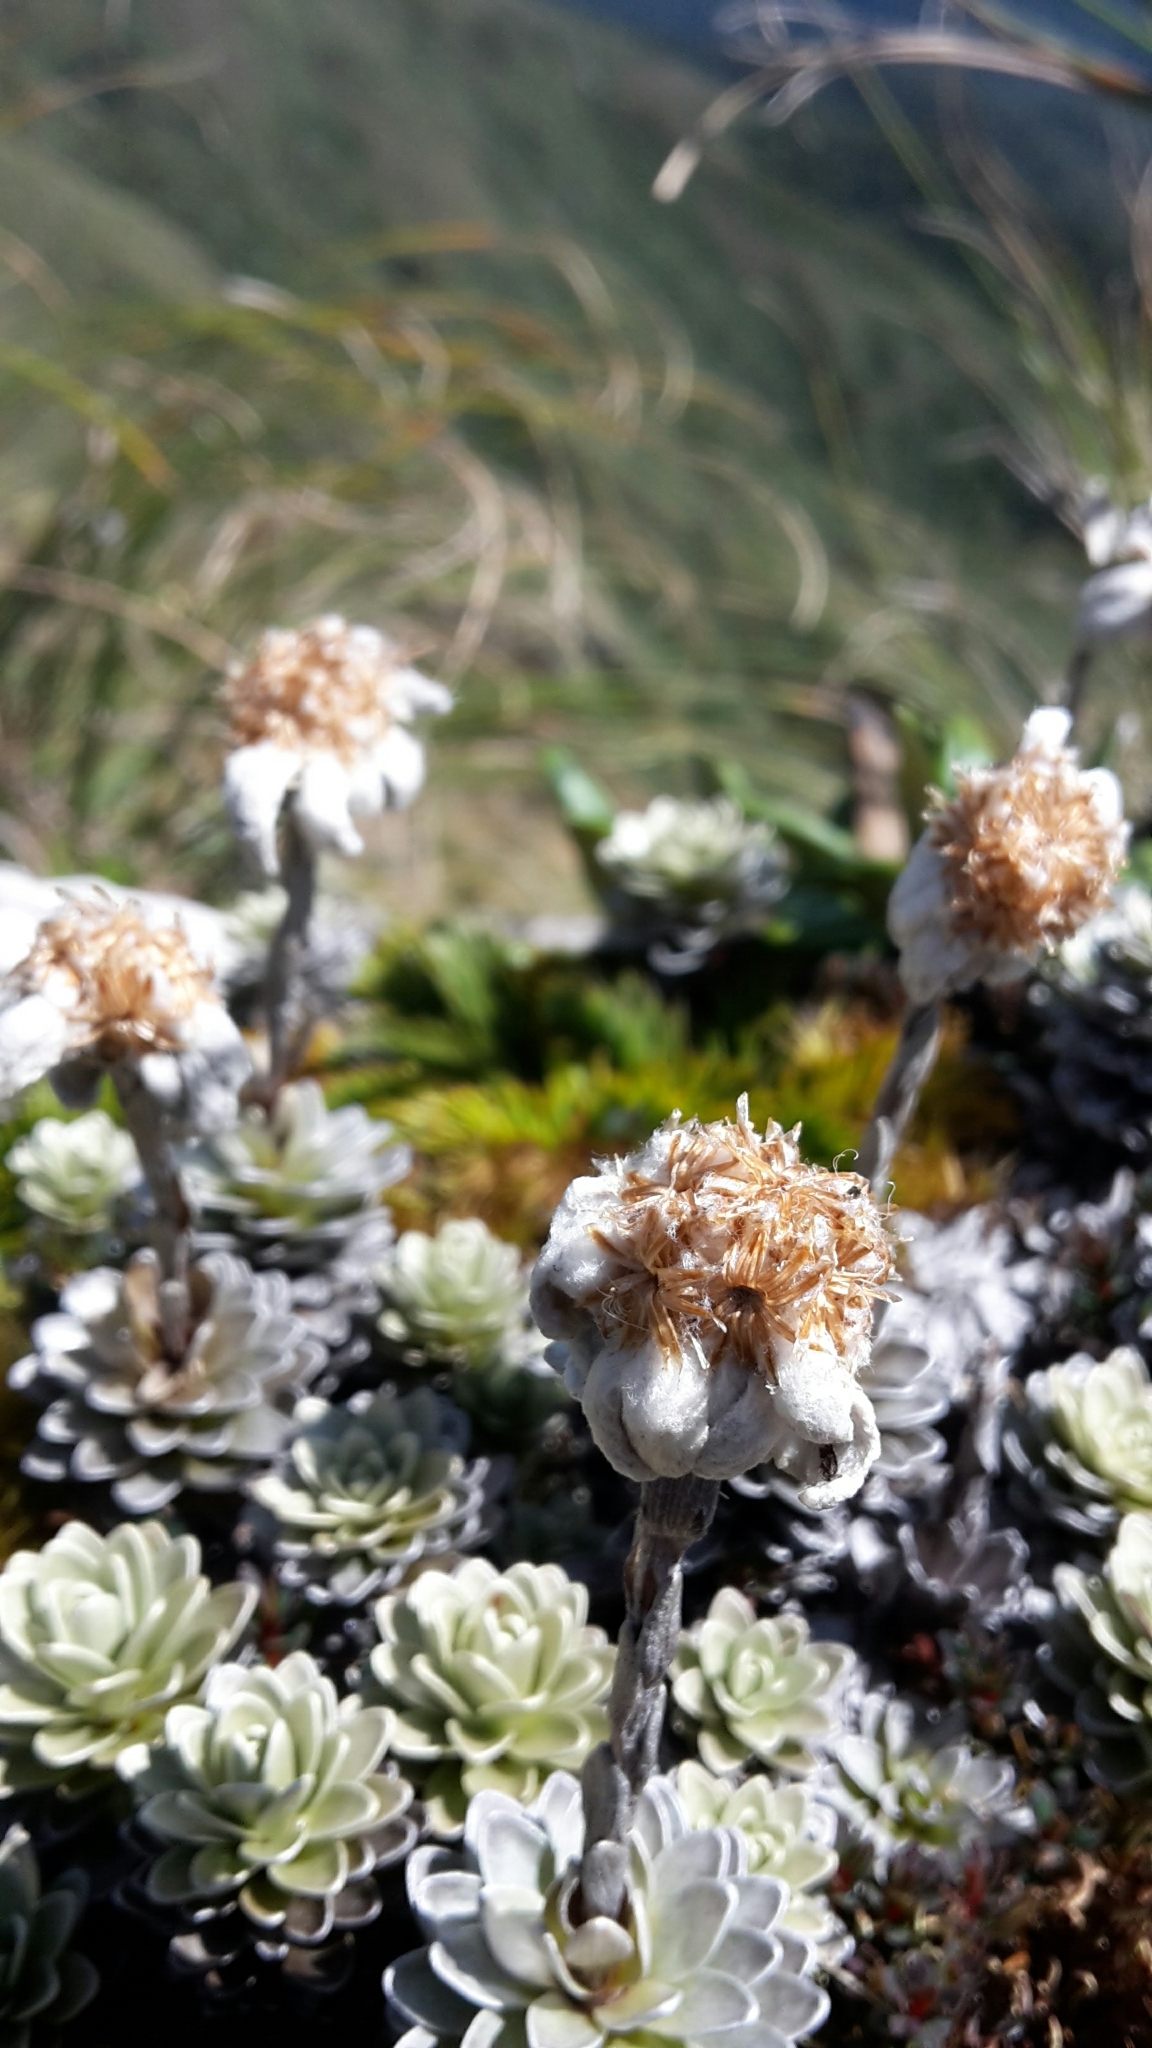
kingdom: Plantae
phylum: Tracheophyta
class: Magnoliopsida
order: Asterales
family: Asteraceae
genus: Leucogenes
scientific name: Leucogenes leontopodium
